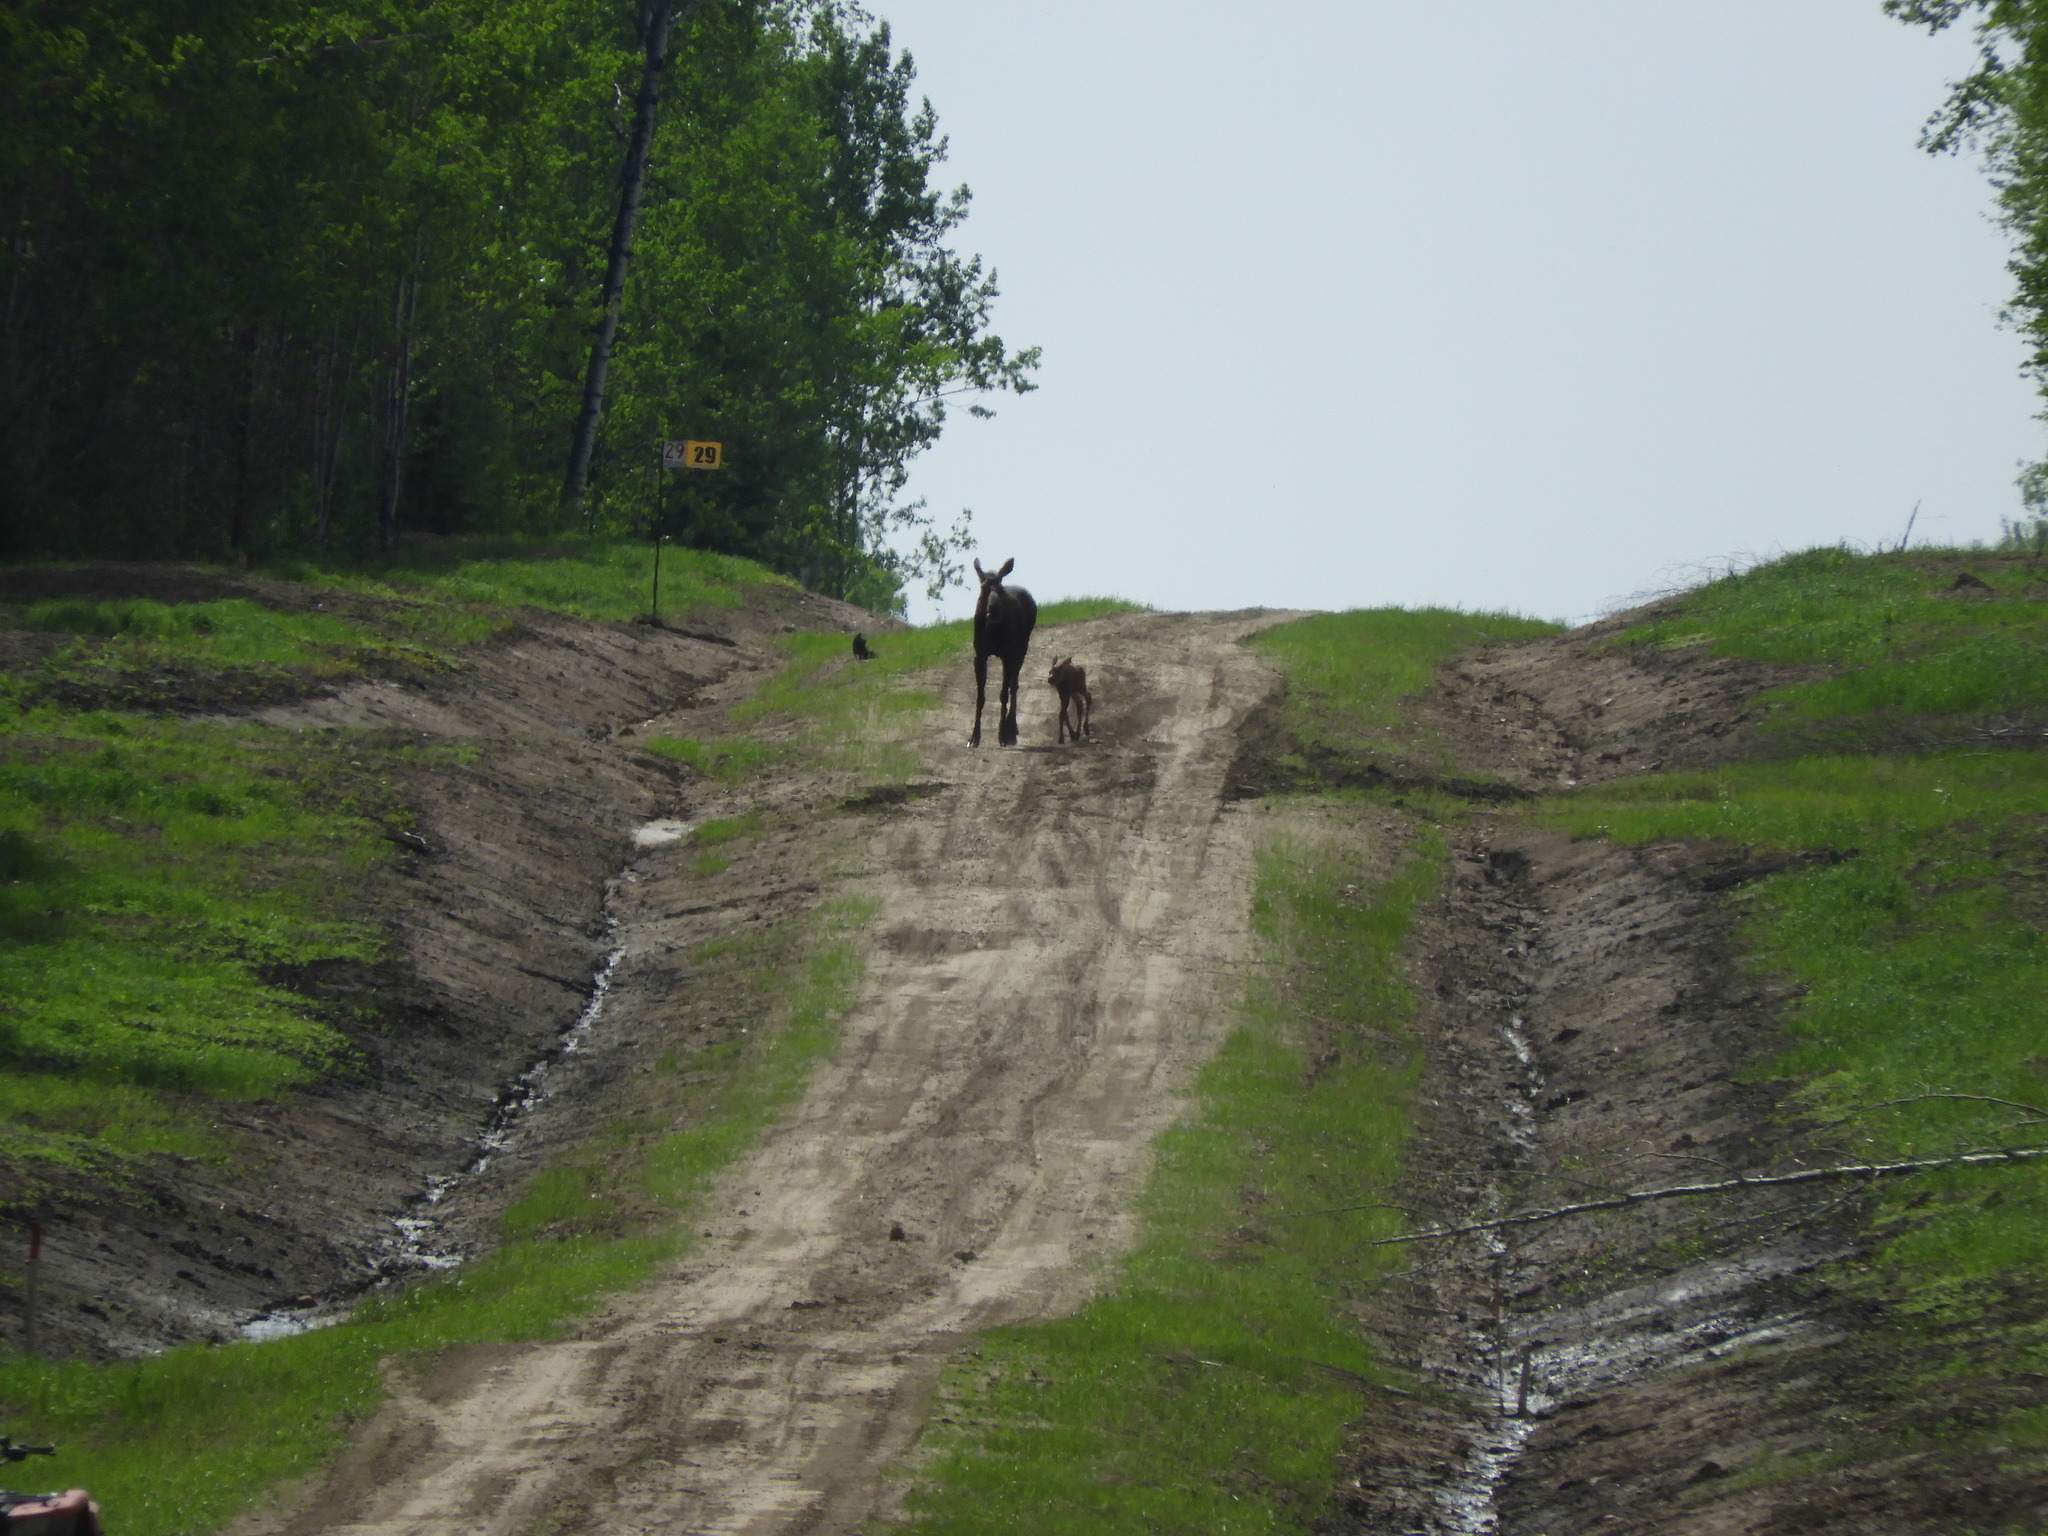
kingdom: Animalia
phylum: Chordata
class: Mammalia
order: Artiodactyla
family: Cervidae
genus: Alces
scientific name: Alces alces
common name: Moose
